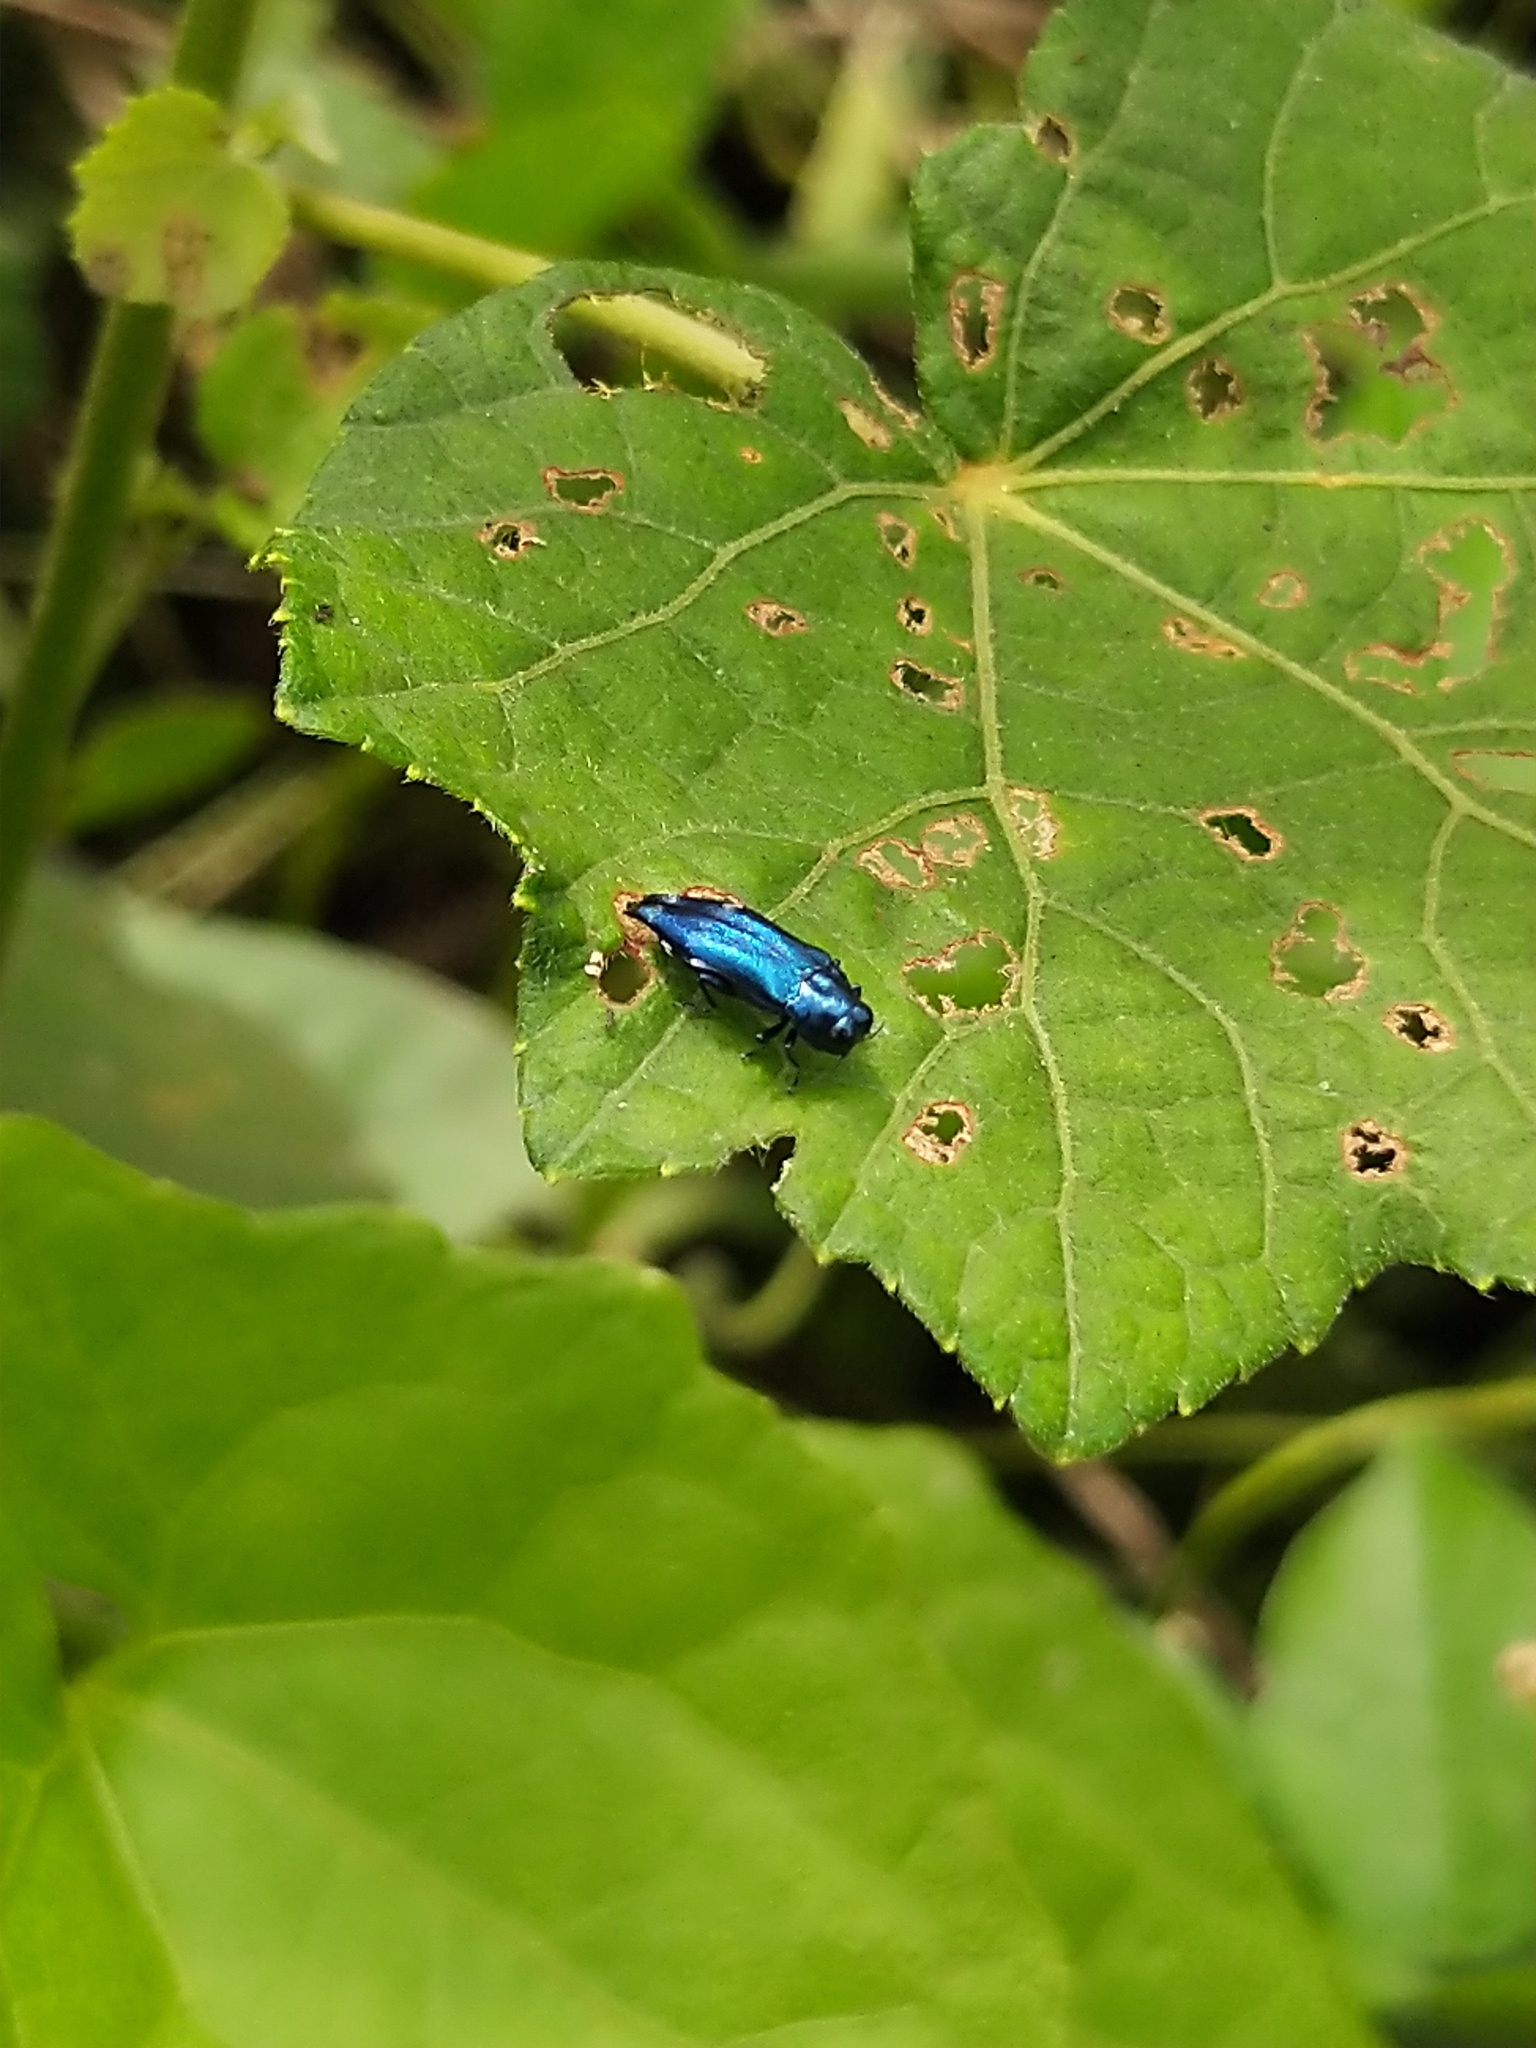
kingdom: Animalia
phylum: Arthropoda
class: Insecta
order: Coleoptera
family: Buprestidae
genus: Agrilus
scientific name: Agrilus acutus
